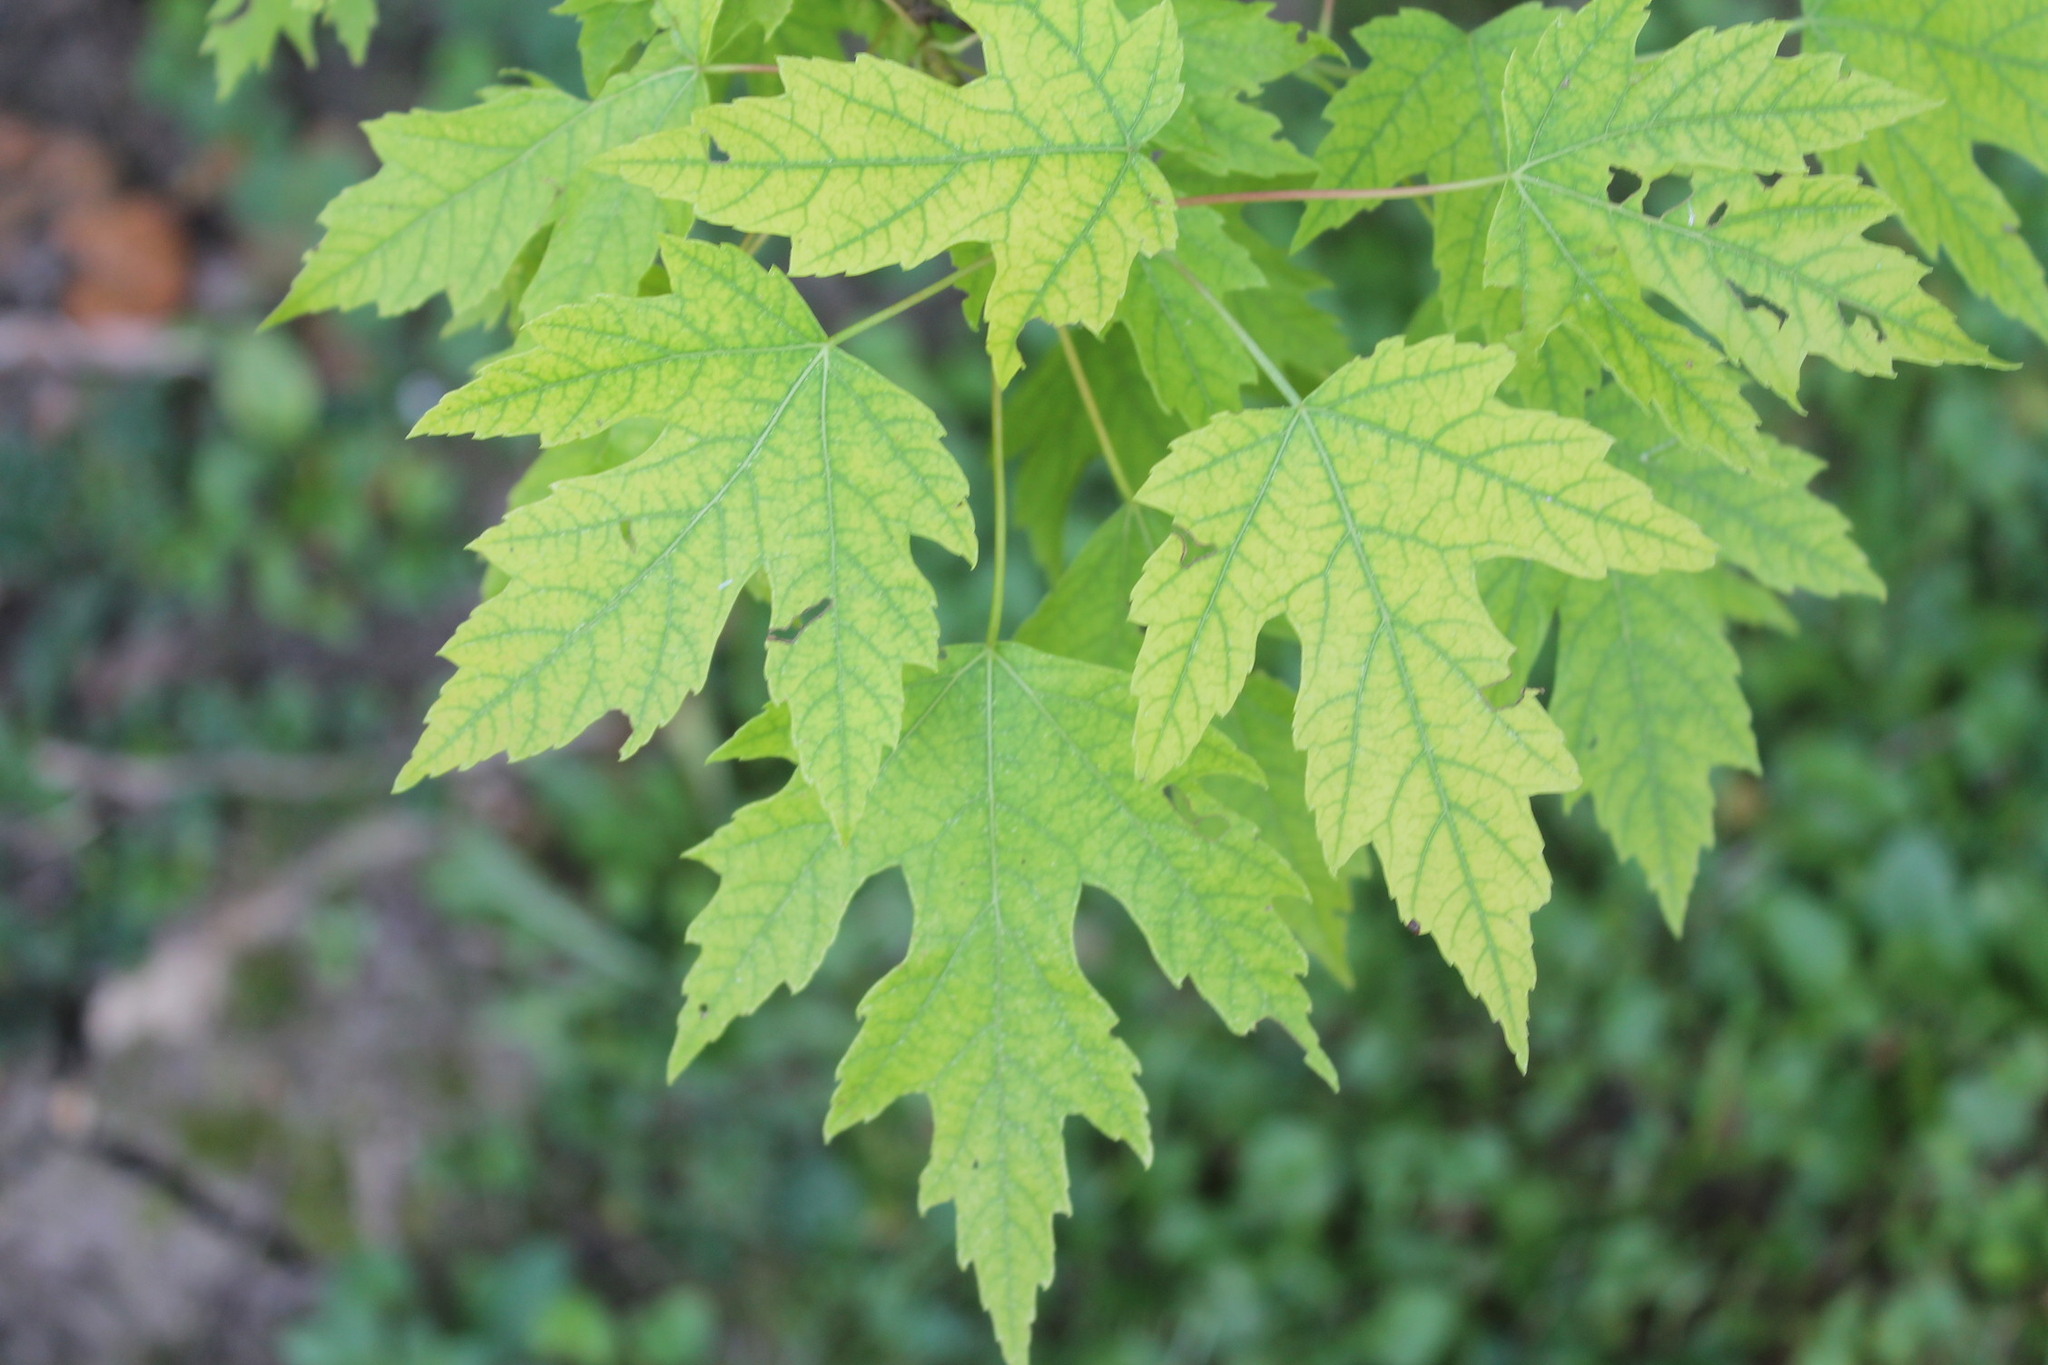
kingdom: Plantae
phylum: Tracheophyta
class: Magnoliopsida
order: Sapindales
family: Sapindaceae
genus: Acer
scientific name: Acer saccharinum
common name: Silver maple
